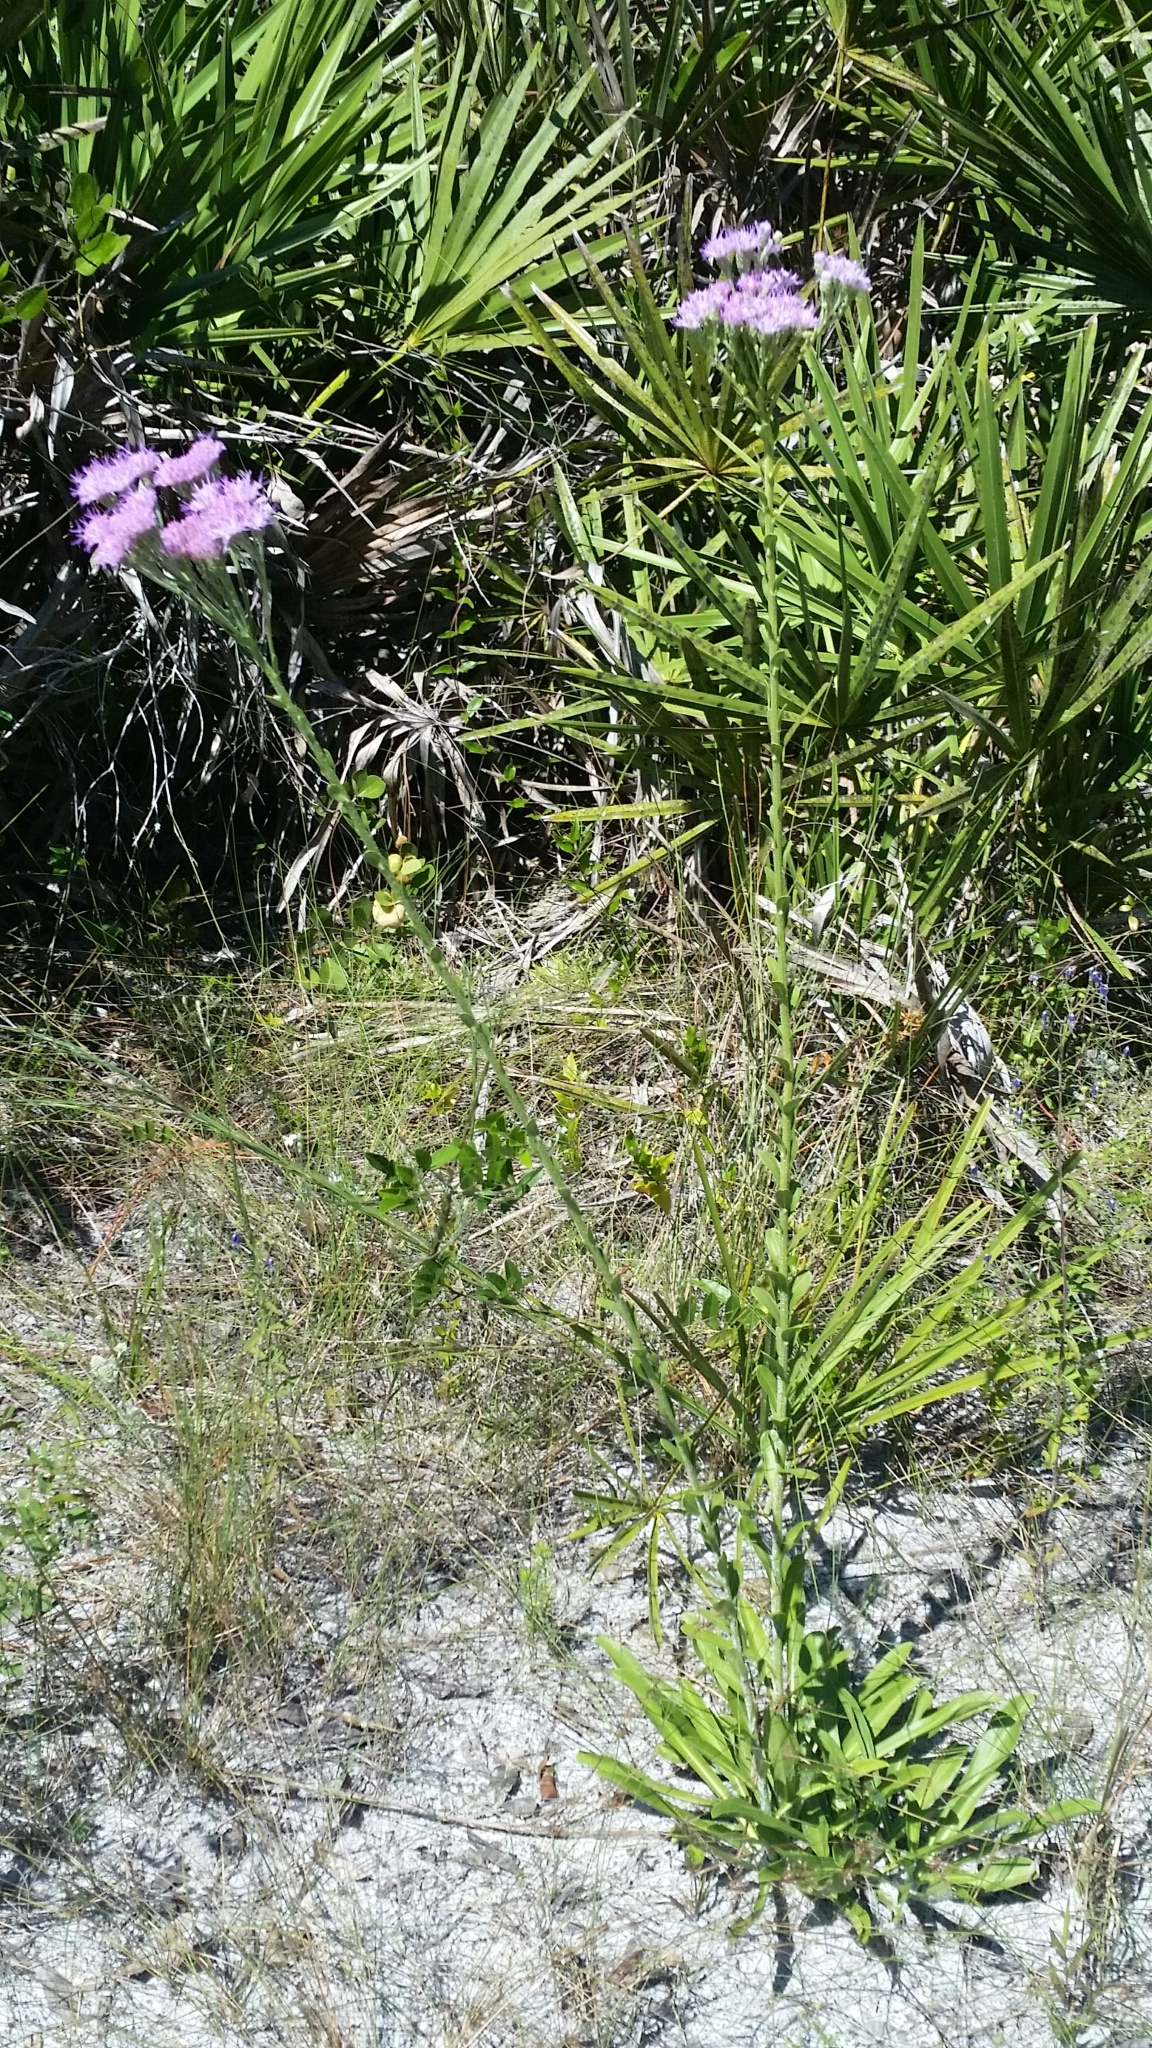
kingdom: Plantae
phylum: Tracheophyta
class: Magnoliopsida
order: Asterales
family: Asteraceae
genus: Carphephorus
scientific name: Carphephorus corymbosus
